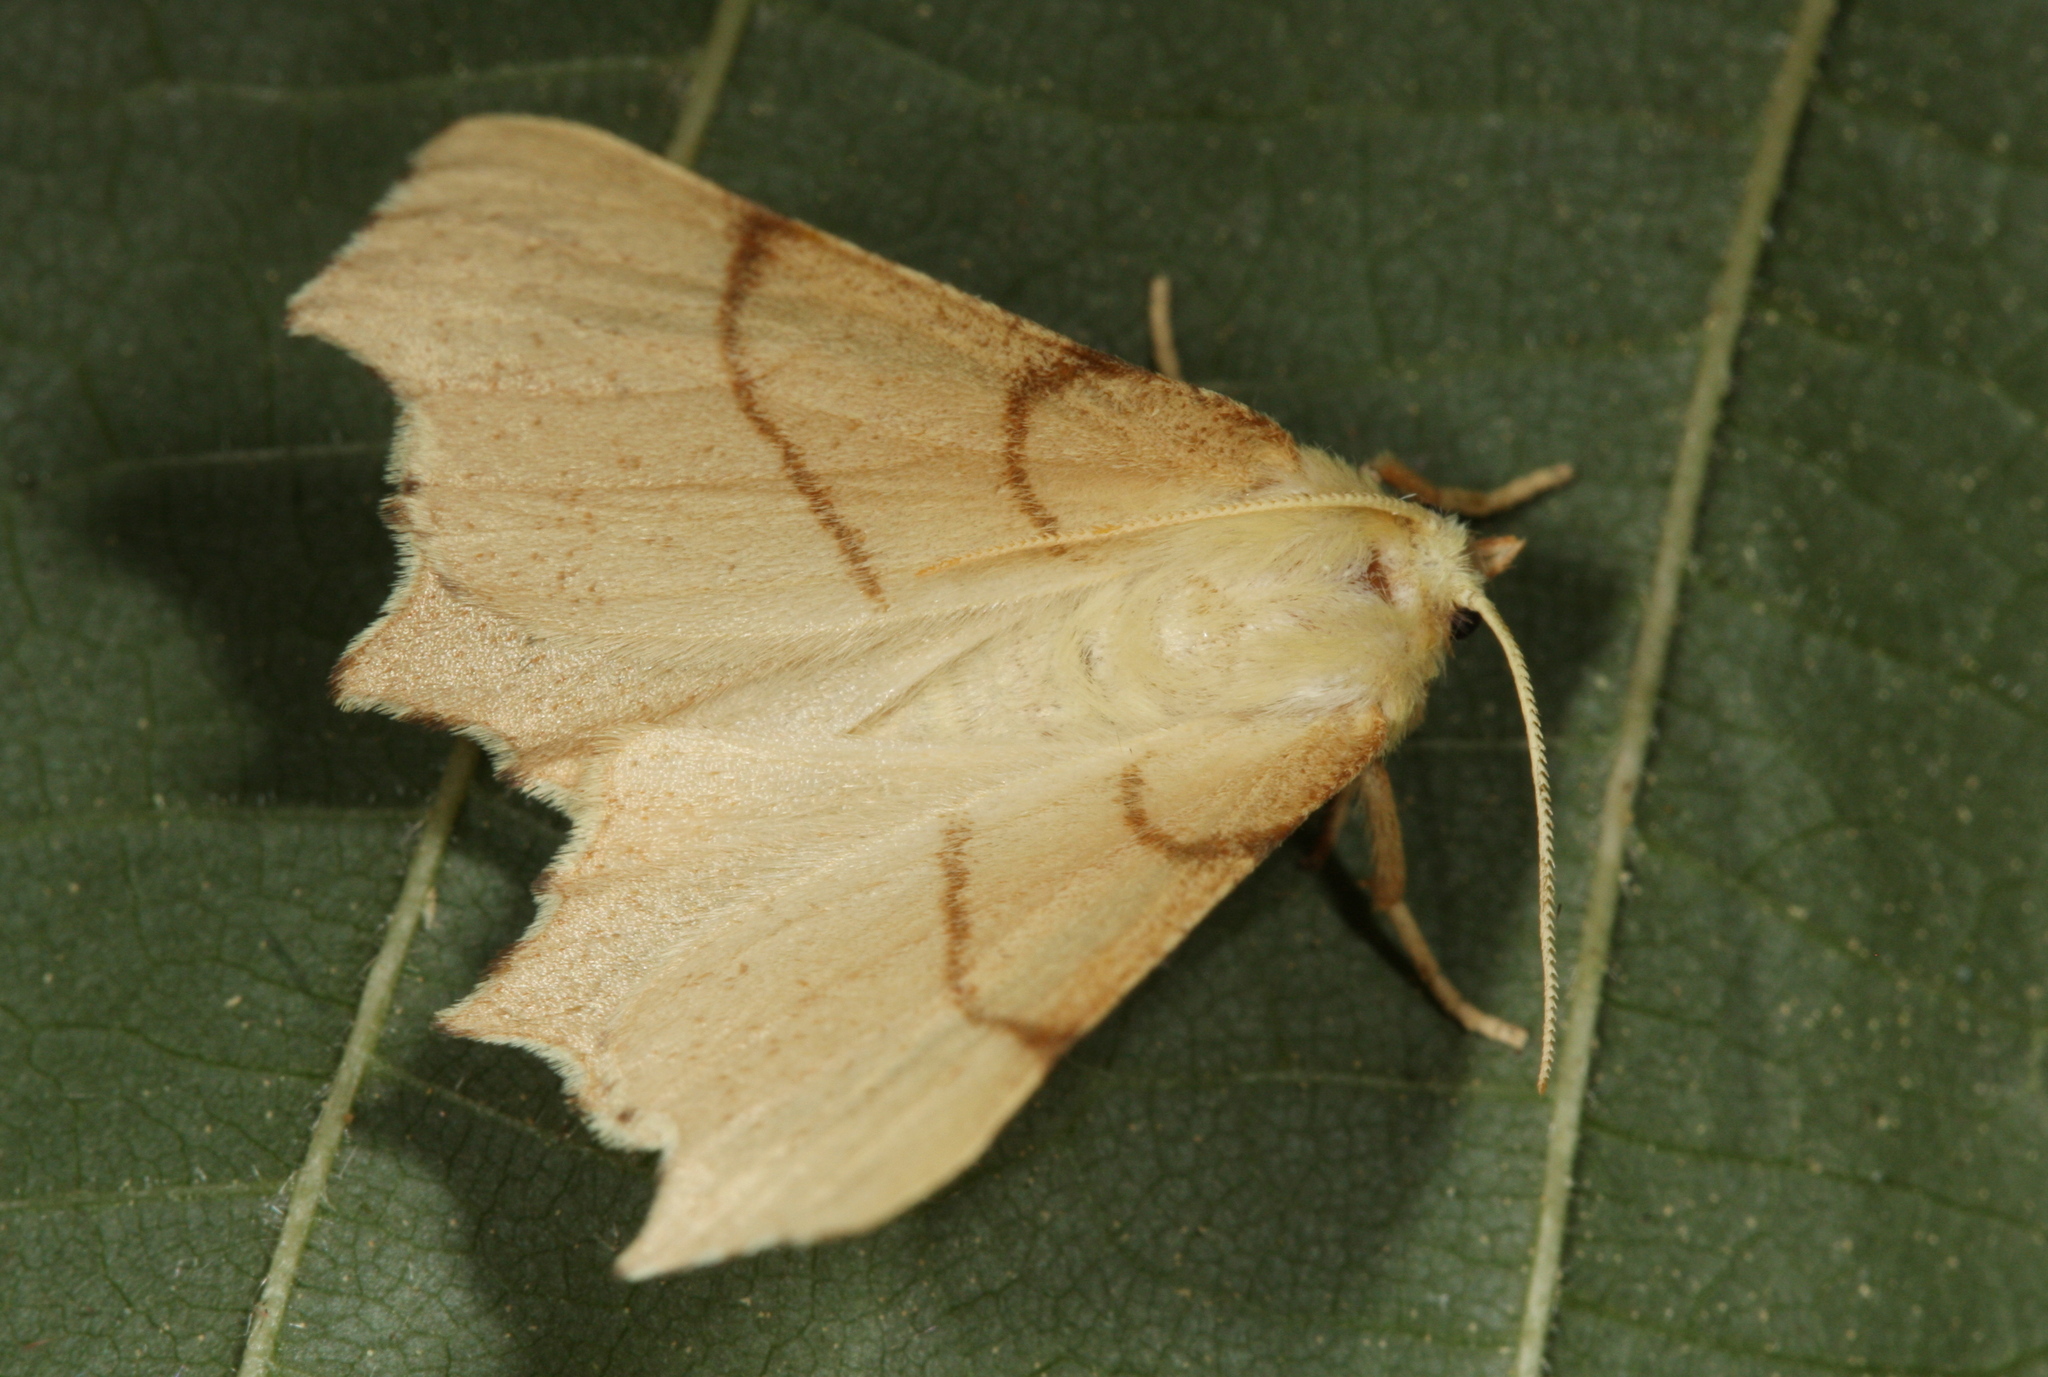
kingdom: Animalia
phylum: Arthropoda
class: Insecta
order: Lepidoptera
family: Geometridae
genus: Ennomos
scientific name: Ennomos erosaria
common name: September thorn
